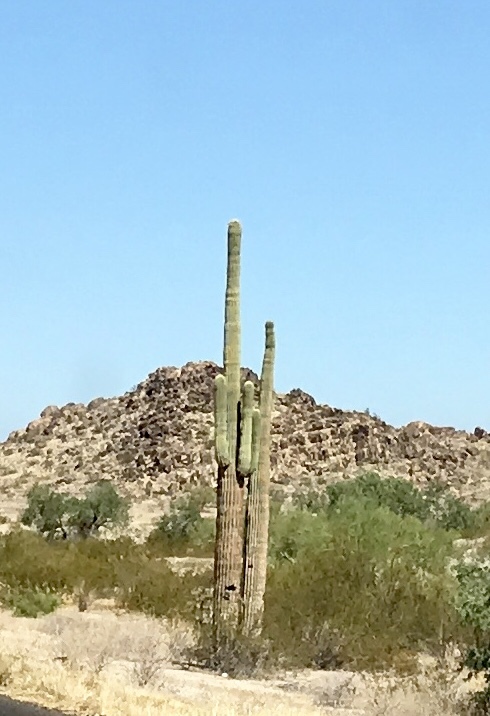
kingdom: Plantae
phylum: Tracheophyta
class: Magnoliopsida
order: Caryophyllales
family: Cactaceae
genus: Carnegiea
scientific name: Carnegiea gigantea
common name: Saguaro
